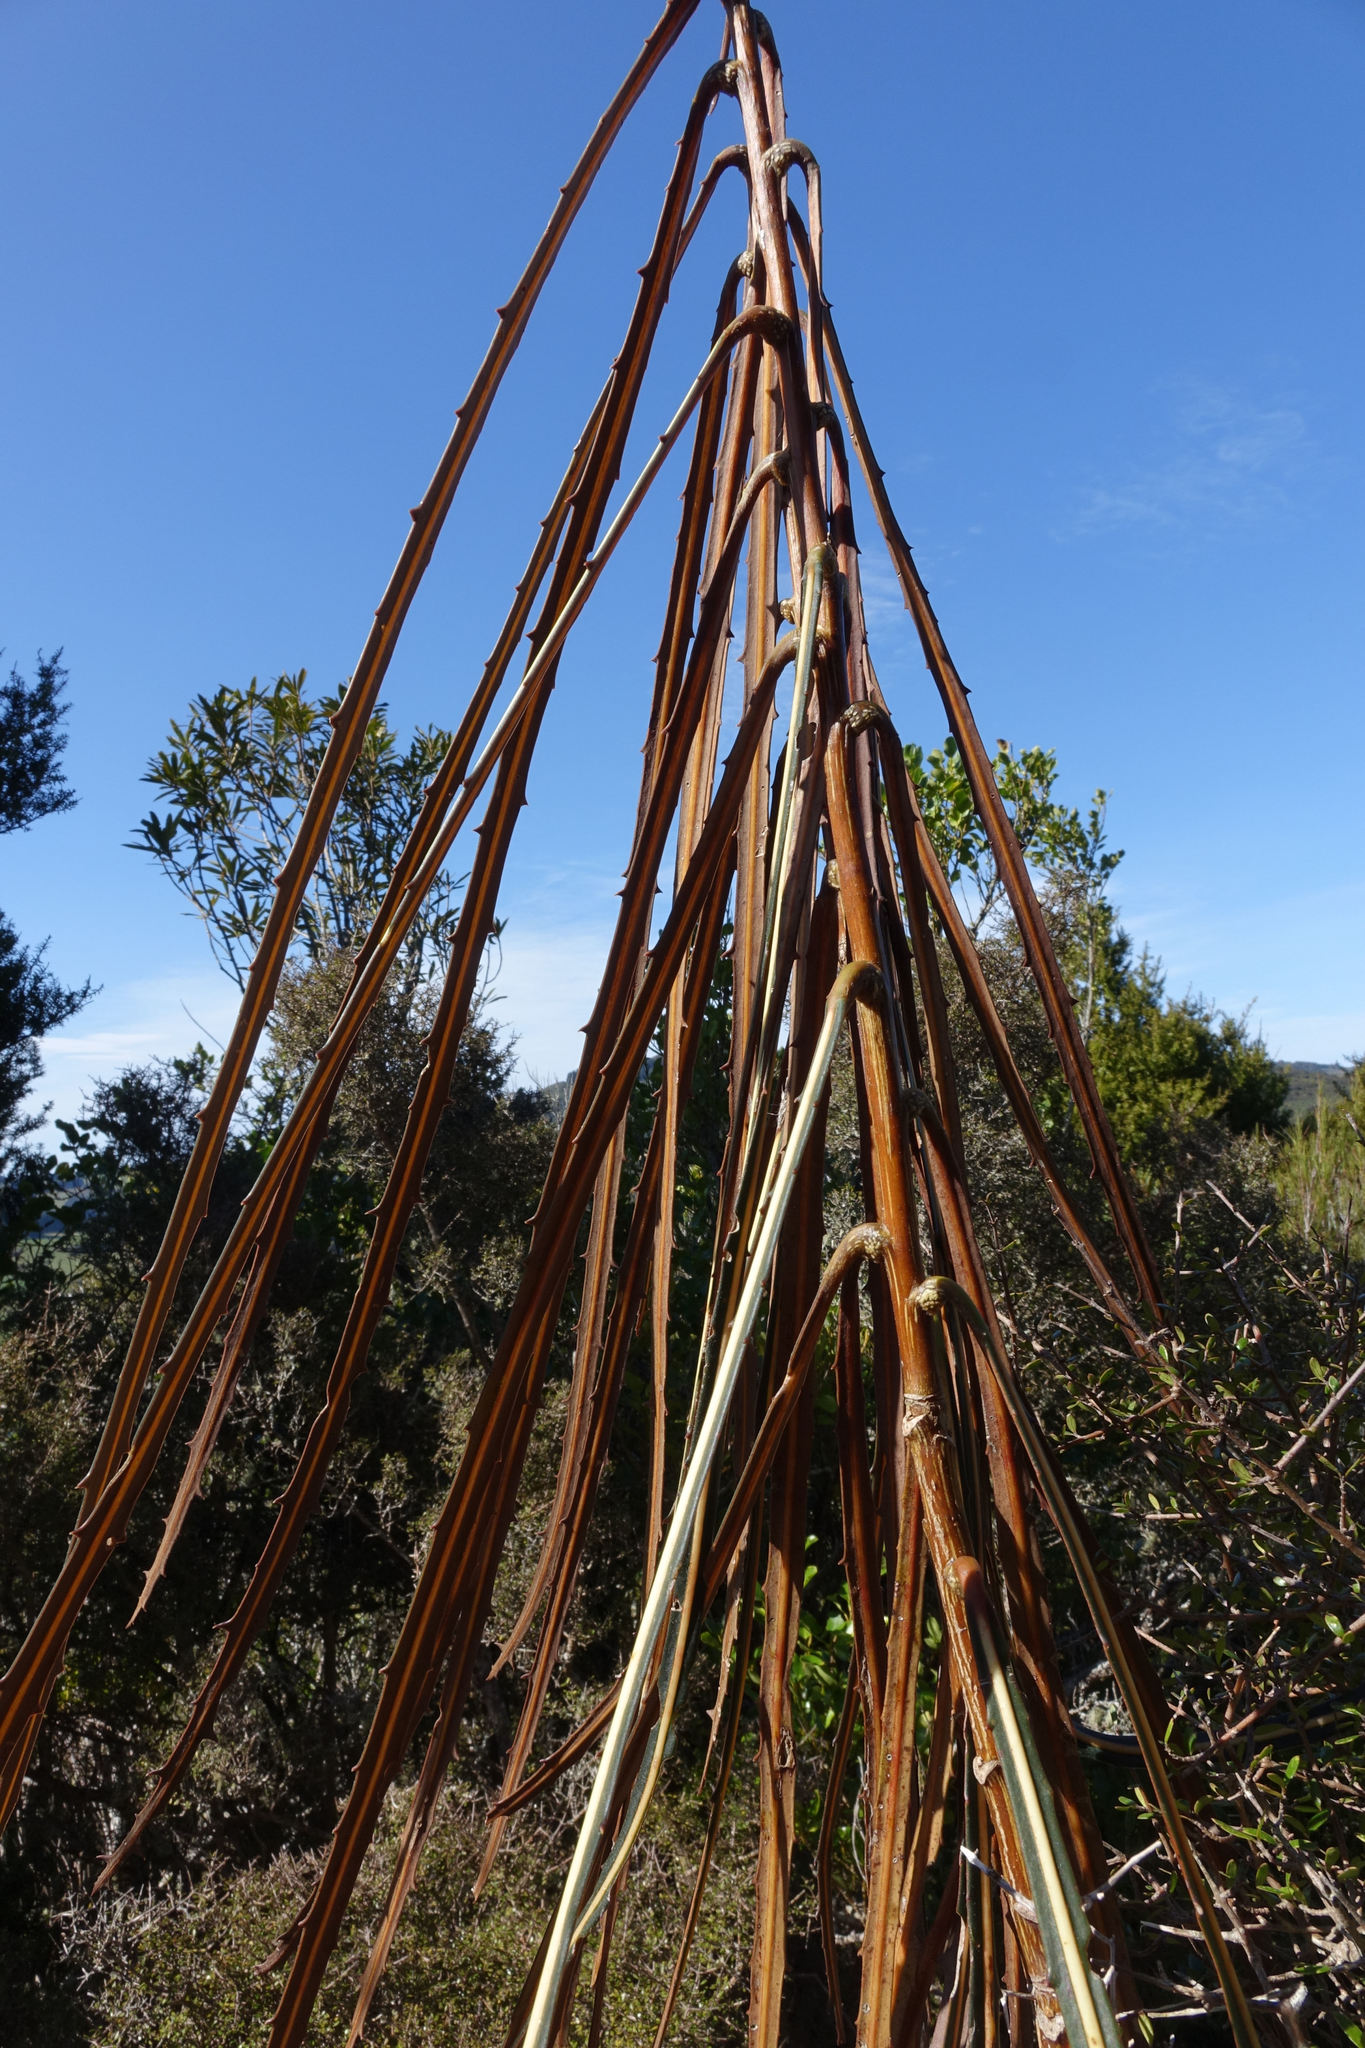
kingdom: Plantae
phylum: Tracheophyta
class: Magnoliopsida
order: Apiales
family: Araliaceae
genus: Pseudopanax
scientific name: Pseudopanax crassifolius
